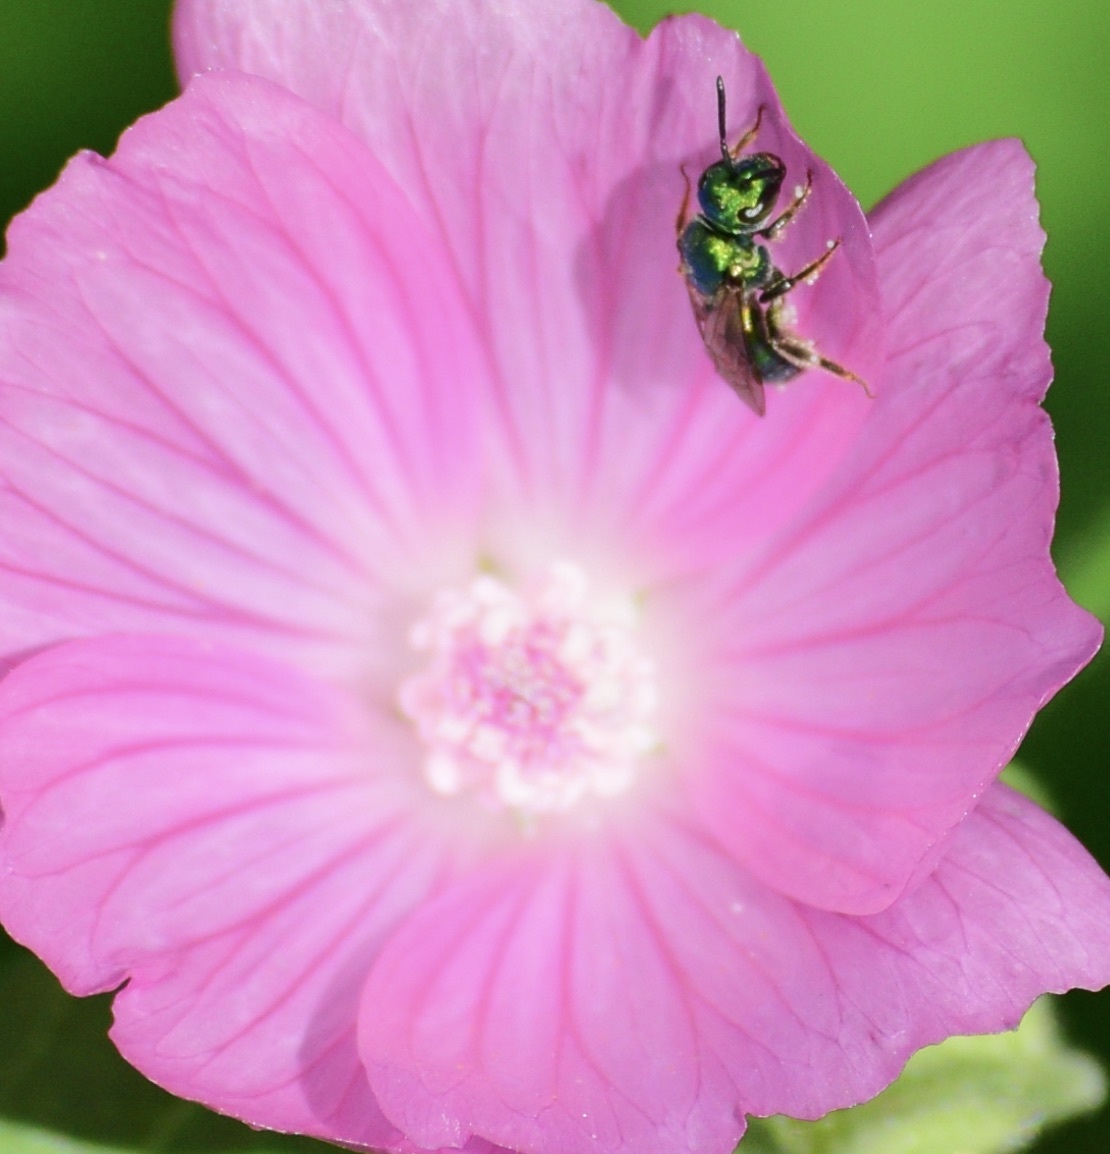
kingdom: Animalia
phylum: Arthropoda
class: Insecta
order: Hymenoptera
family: Halictidae
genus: Augochlora
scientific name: Augochlora pura
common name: Pure green sweat bee
